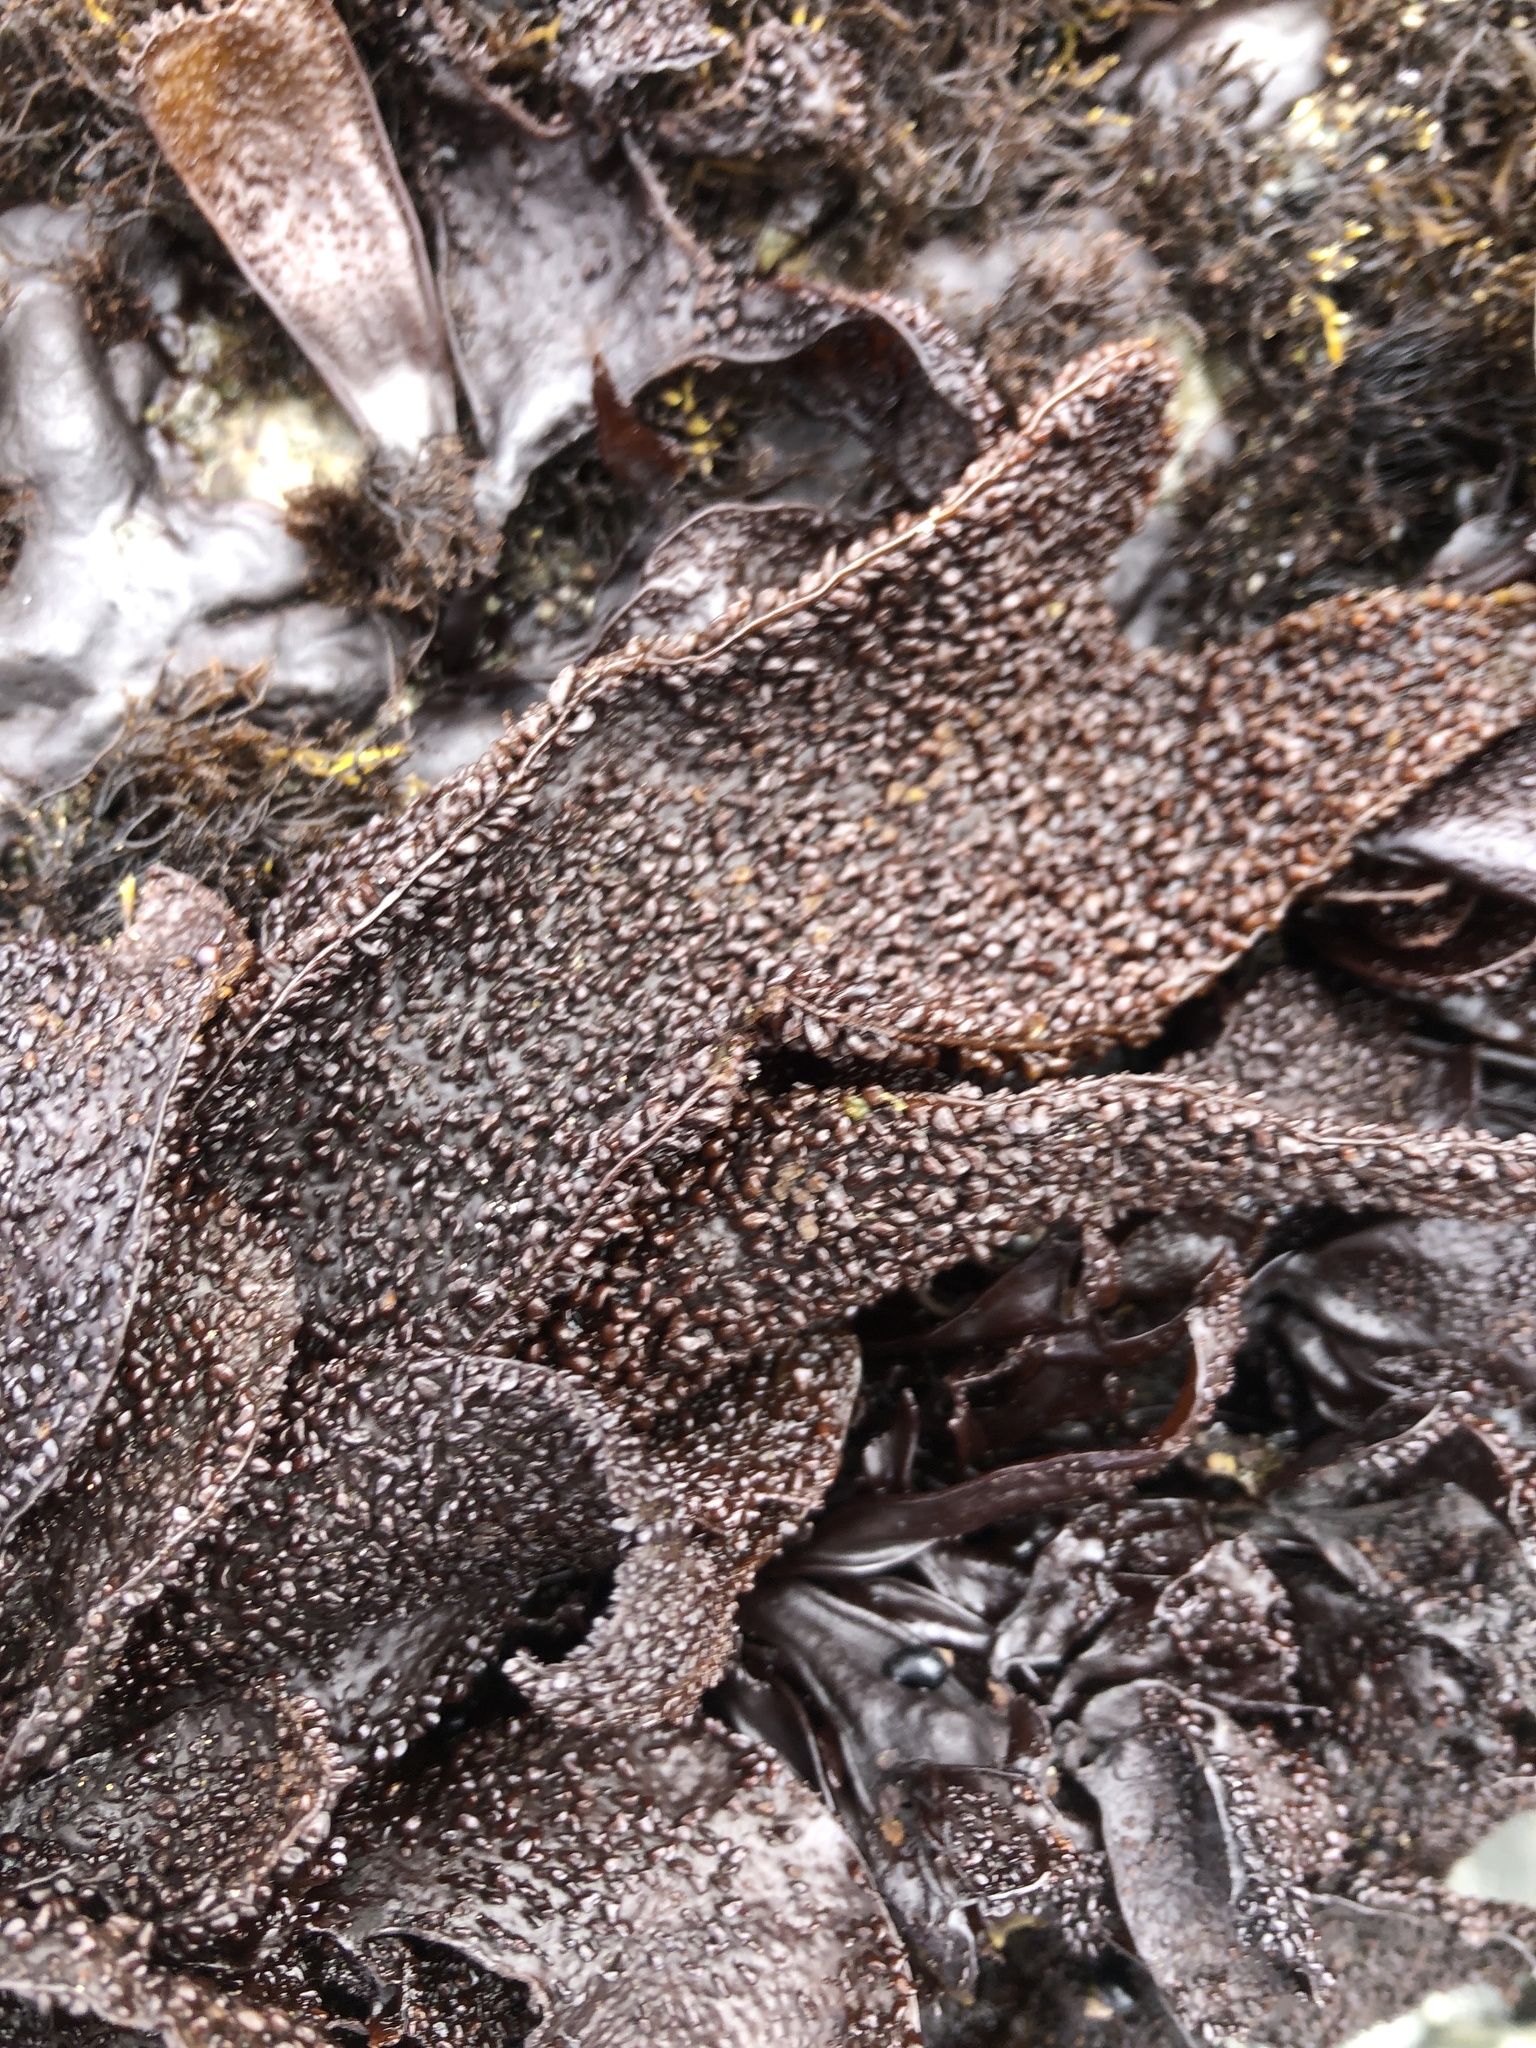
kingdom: Plantae
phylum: Rhodophyta
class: Florideophyceae
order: Gigartinales
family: Phyllophoraceae
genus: Mastocarpus
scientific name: Mastocarpus papillatus
